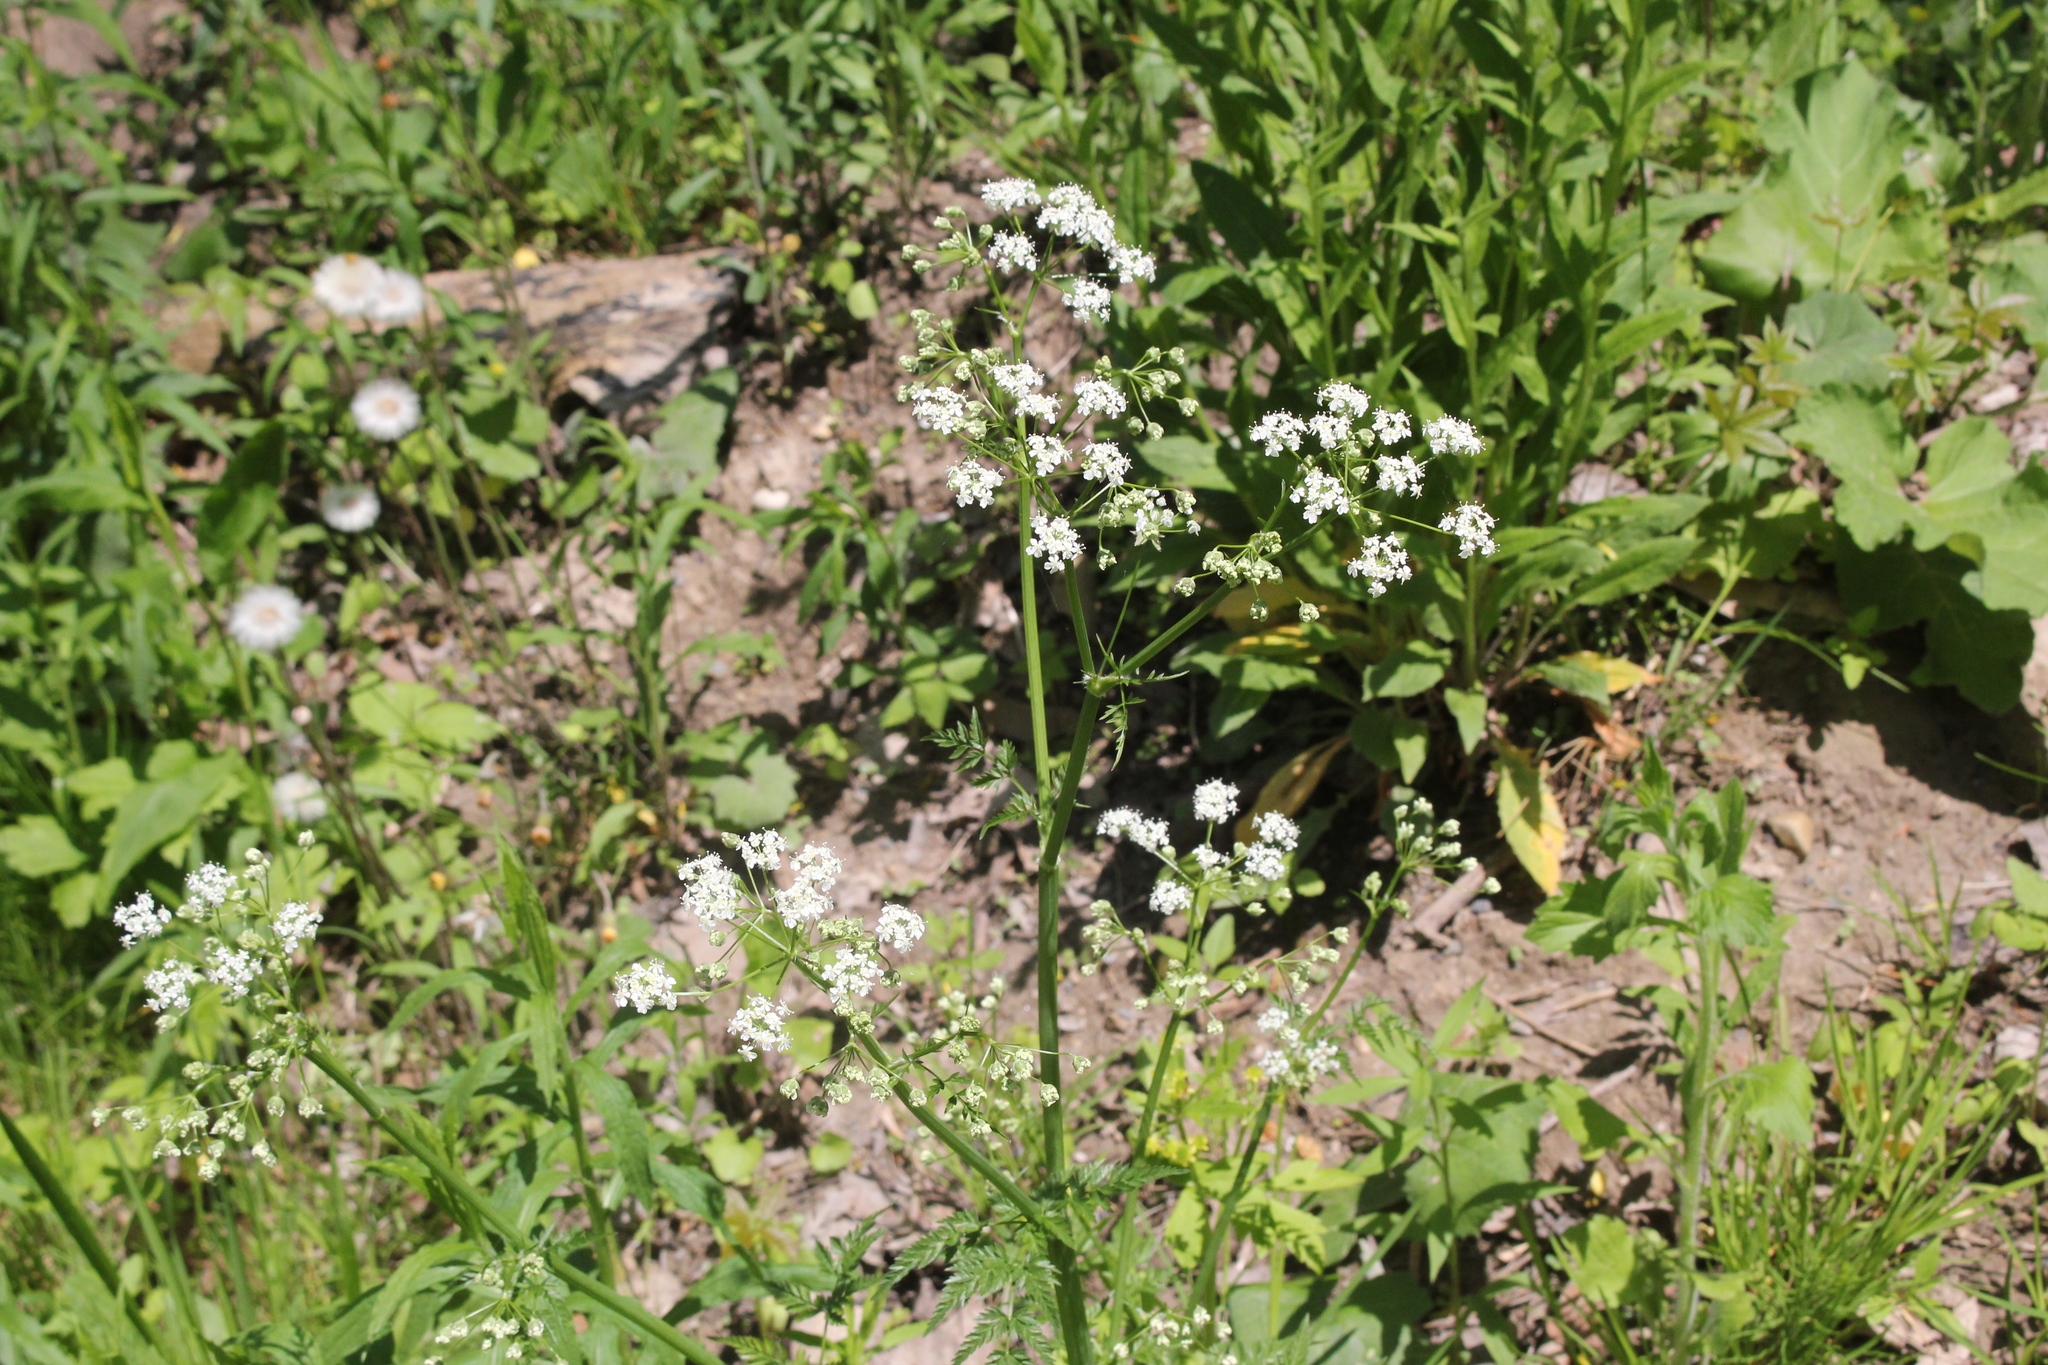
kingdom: Plantae
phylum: Tracheophyta
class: Magnoliopsida
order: Apiales
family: Apiaceae
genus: Anthriscus
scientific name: Anthriscus sylvestris
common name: Cow parsley
